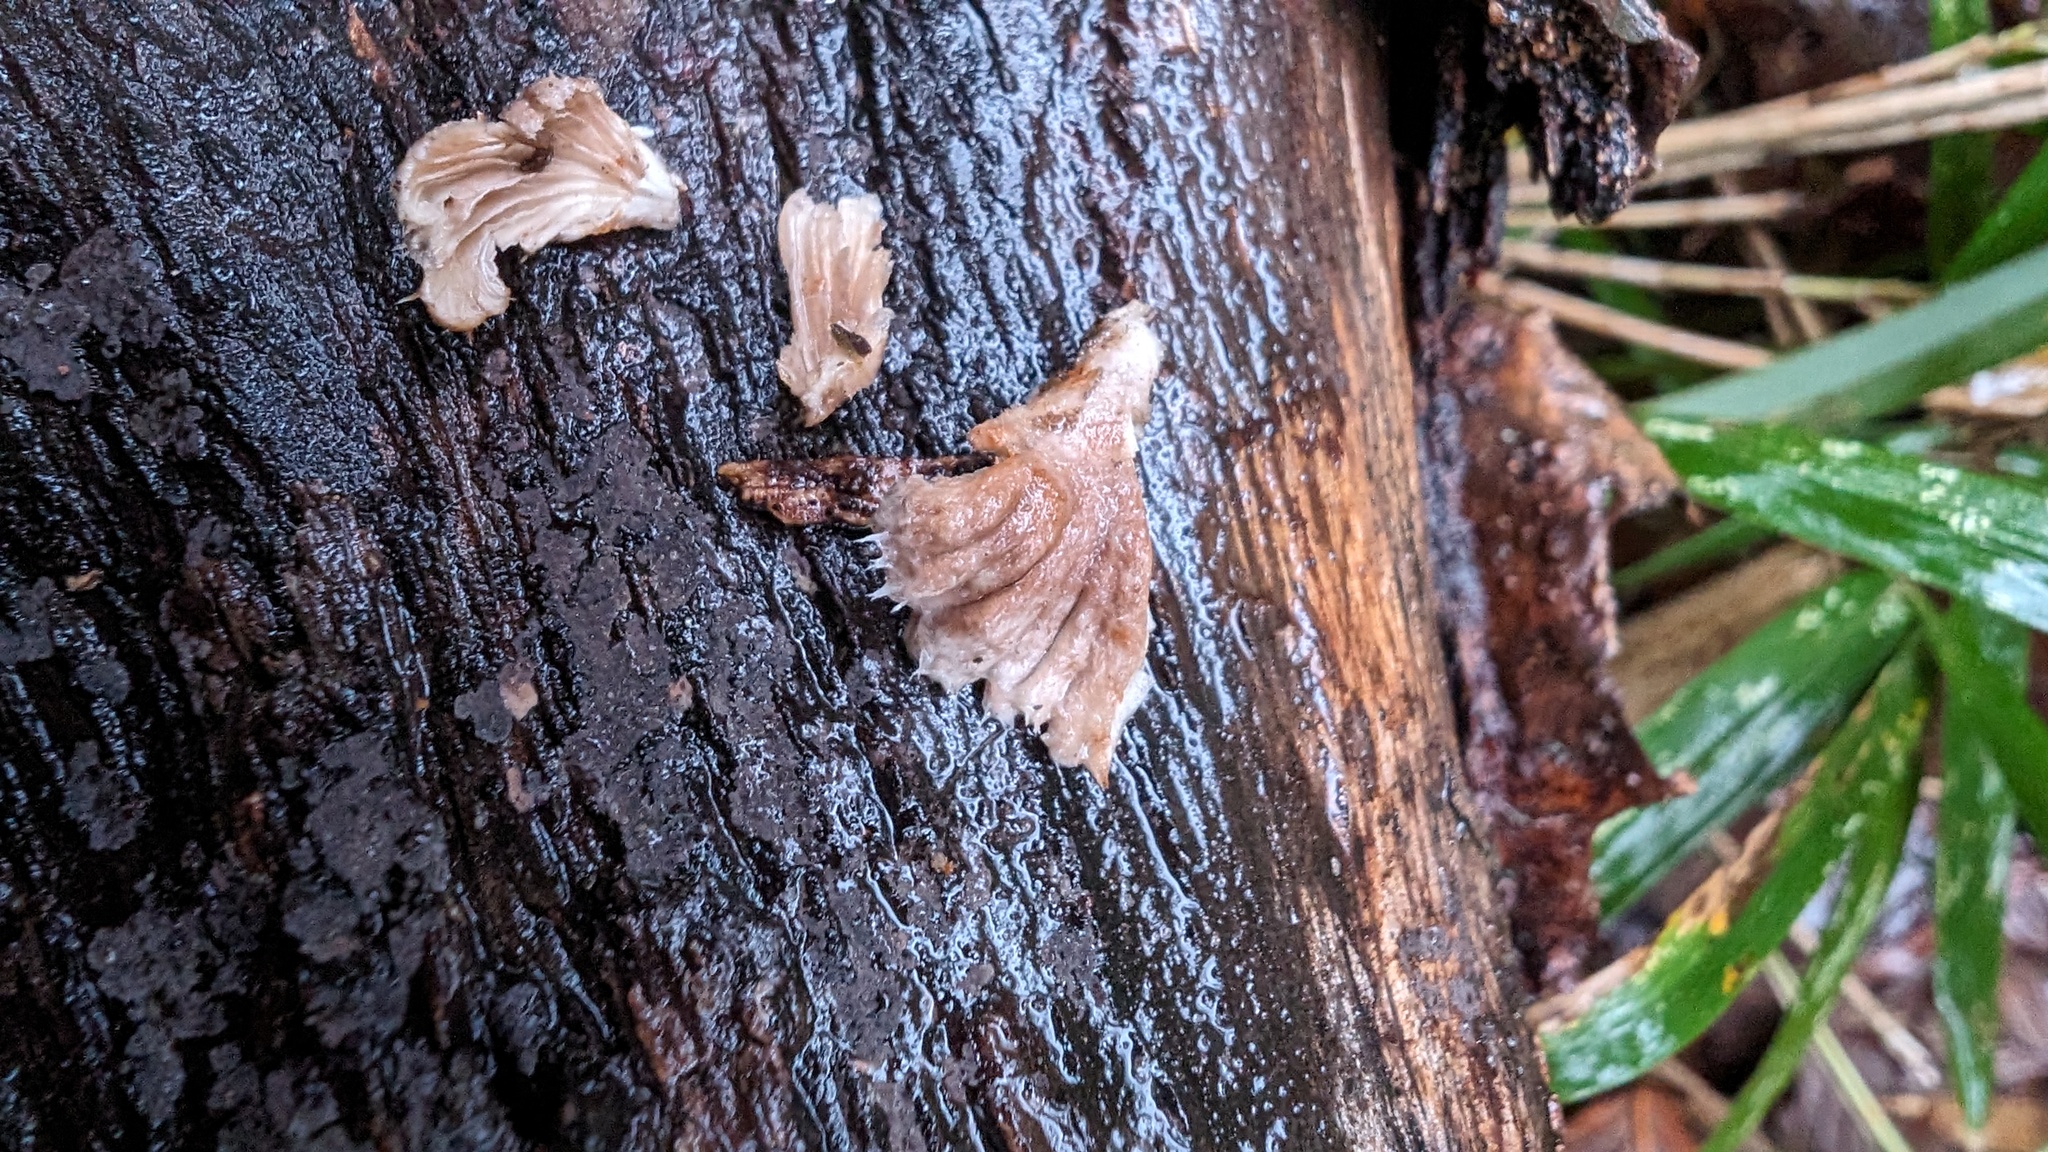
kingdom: Fungi
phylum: Basidiomycota
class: Agaricomycetes
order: Agaricales
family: Schizophyllaceae
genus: Schizophyllum
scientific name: Schizophyllum commune
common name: Common porecrust
